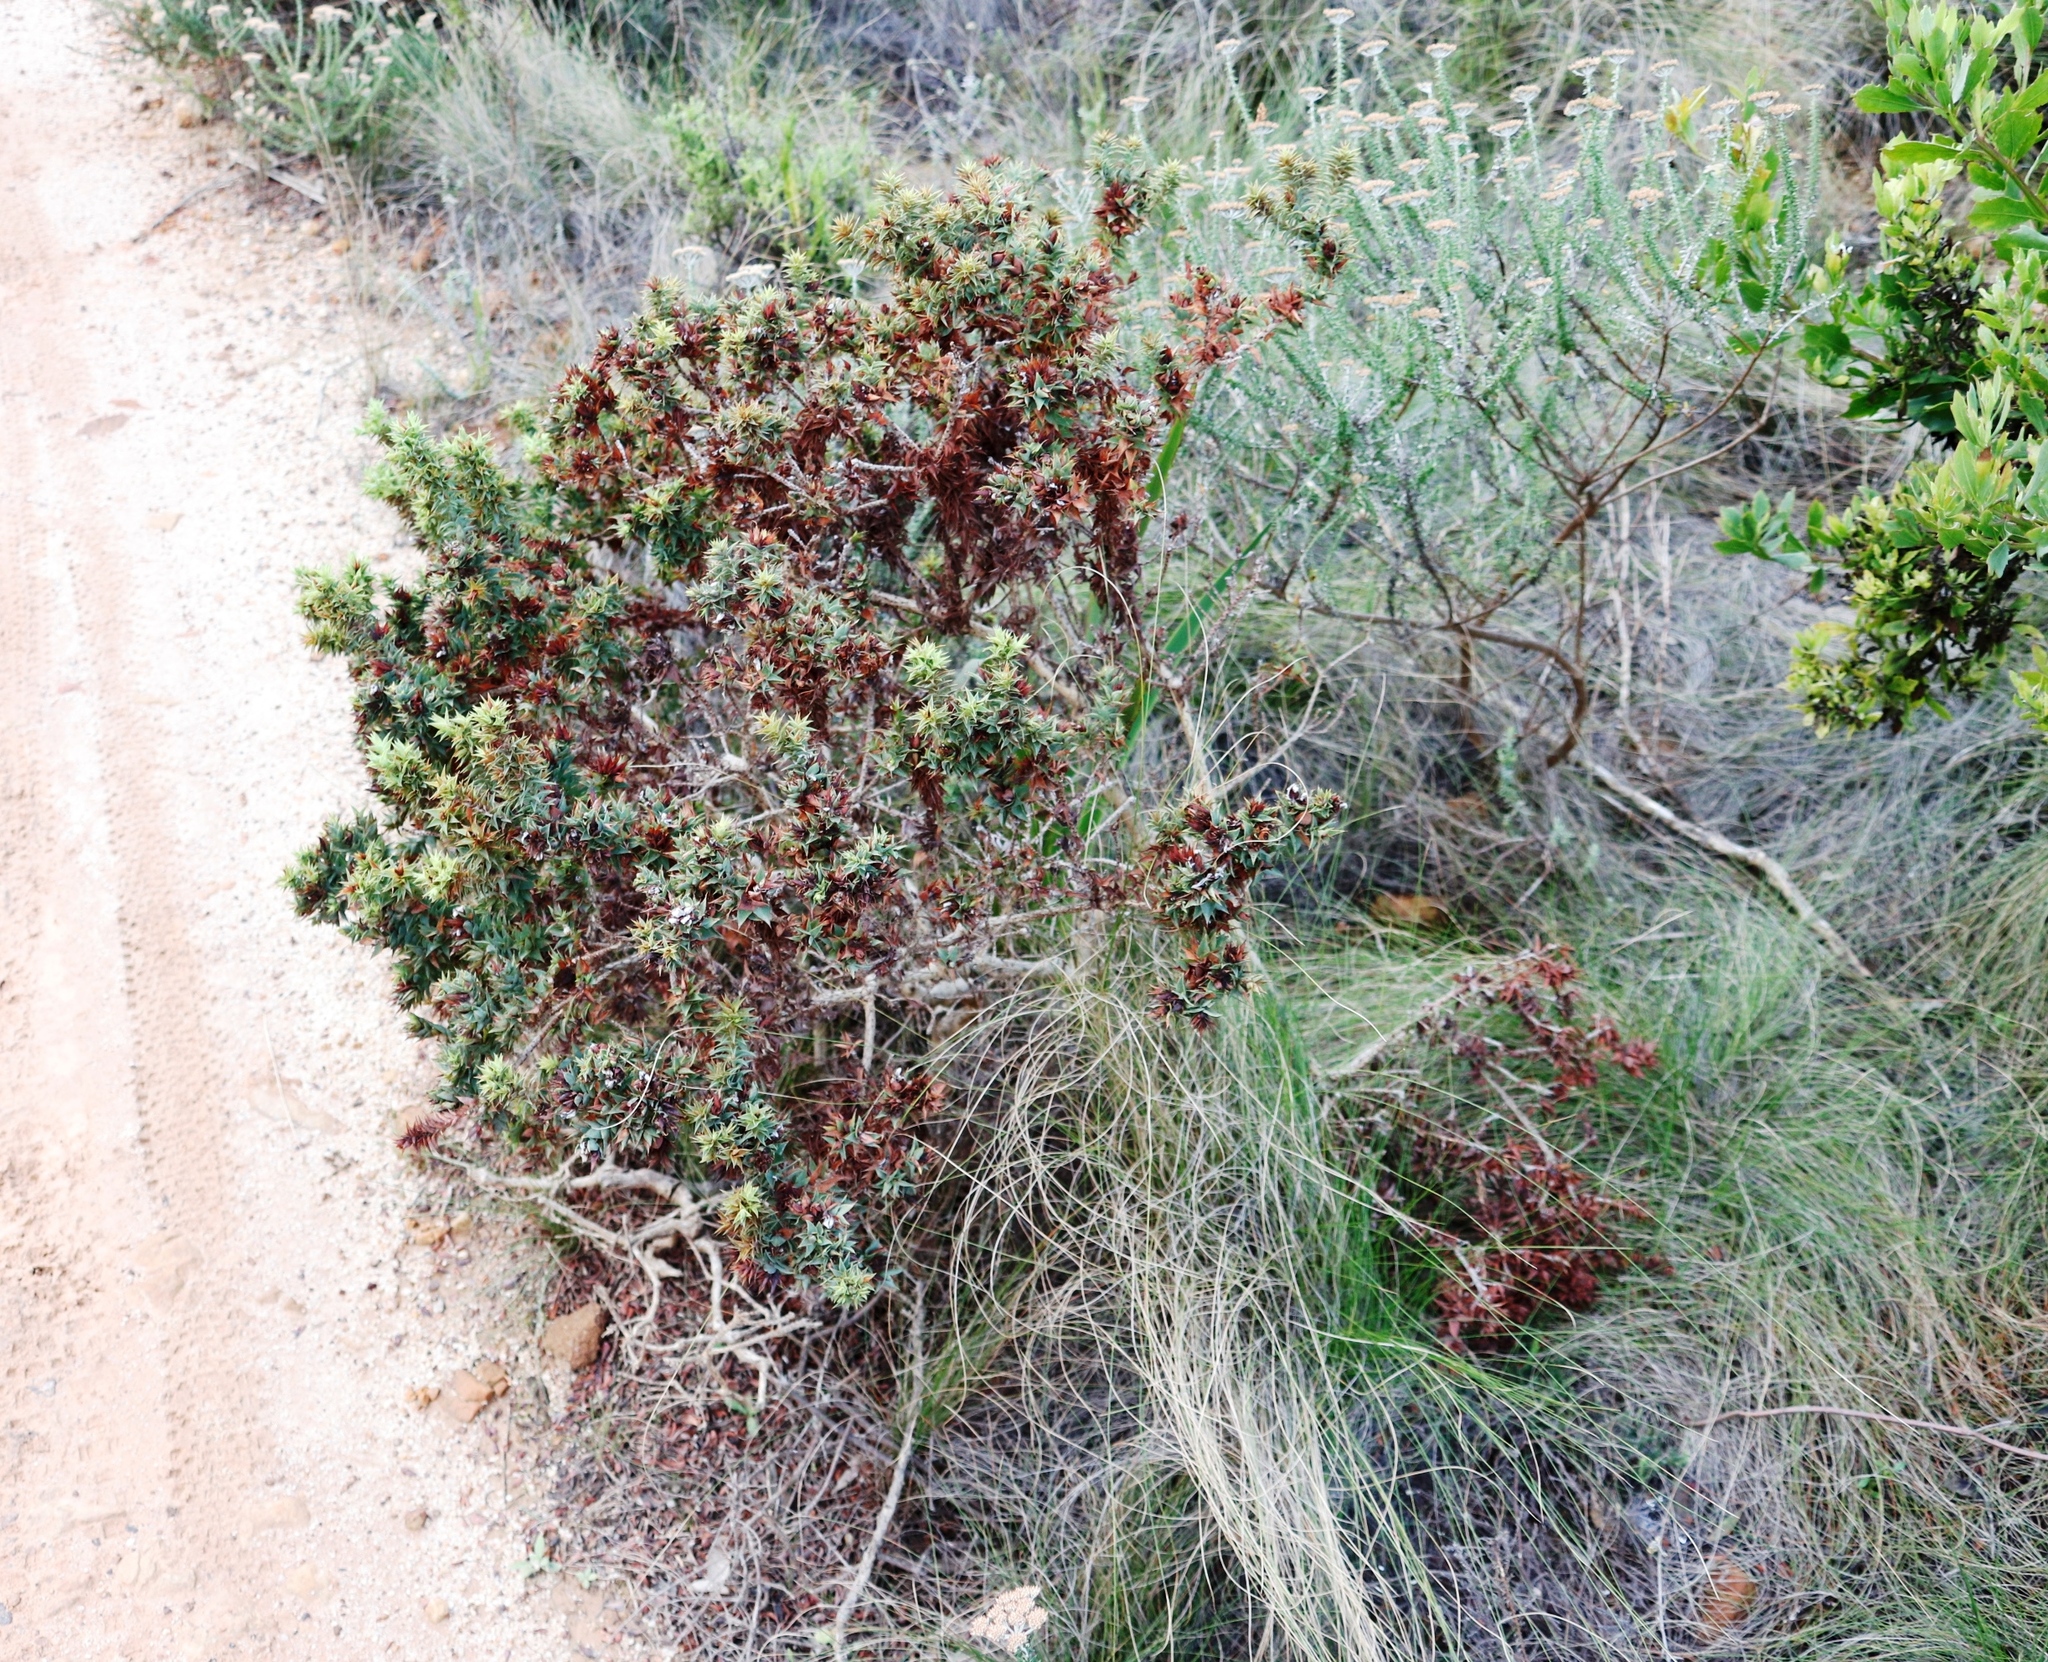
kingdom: Plantae
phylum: Tracheophyta
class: Magnoliopsida
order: Fabales
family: Fabaceae
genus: Aspalathus
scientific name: Aspalathus cordata
